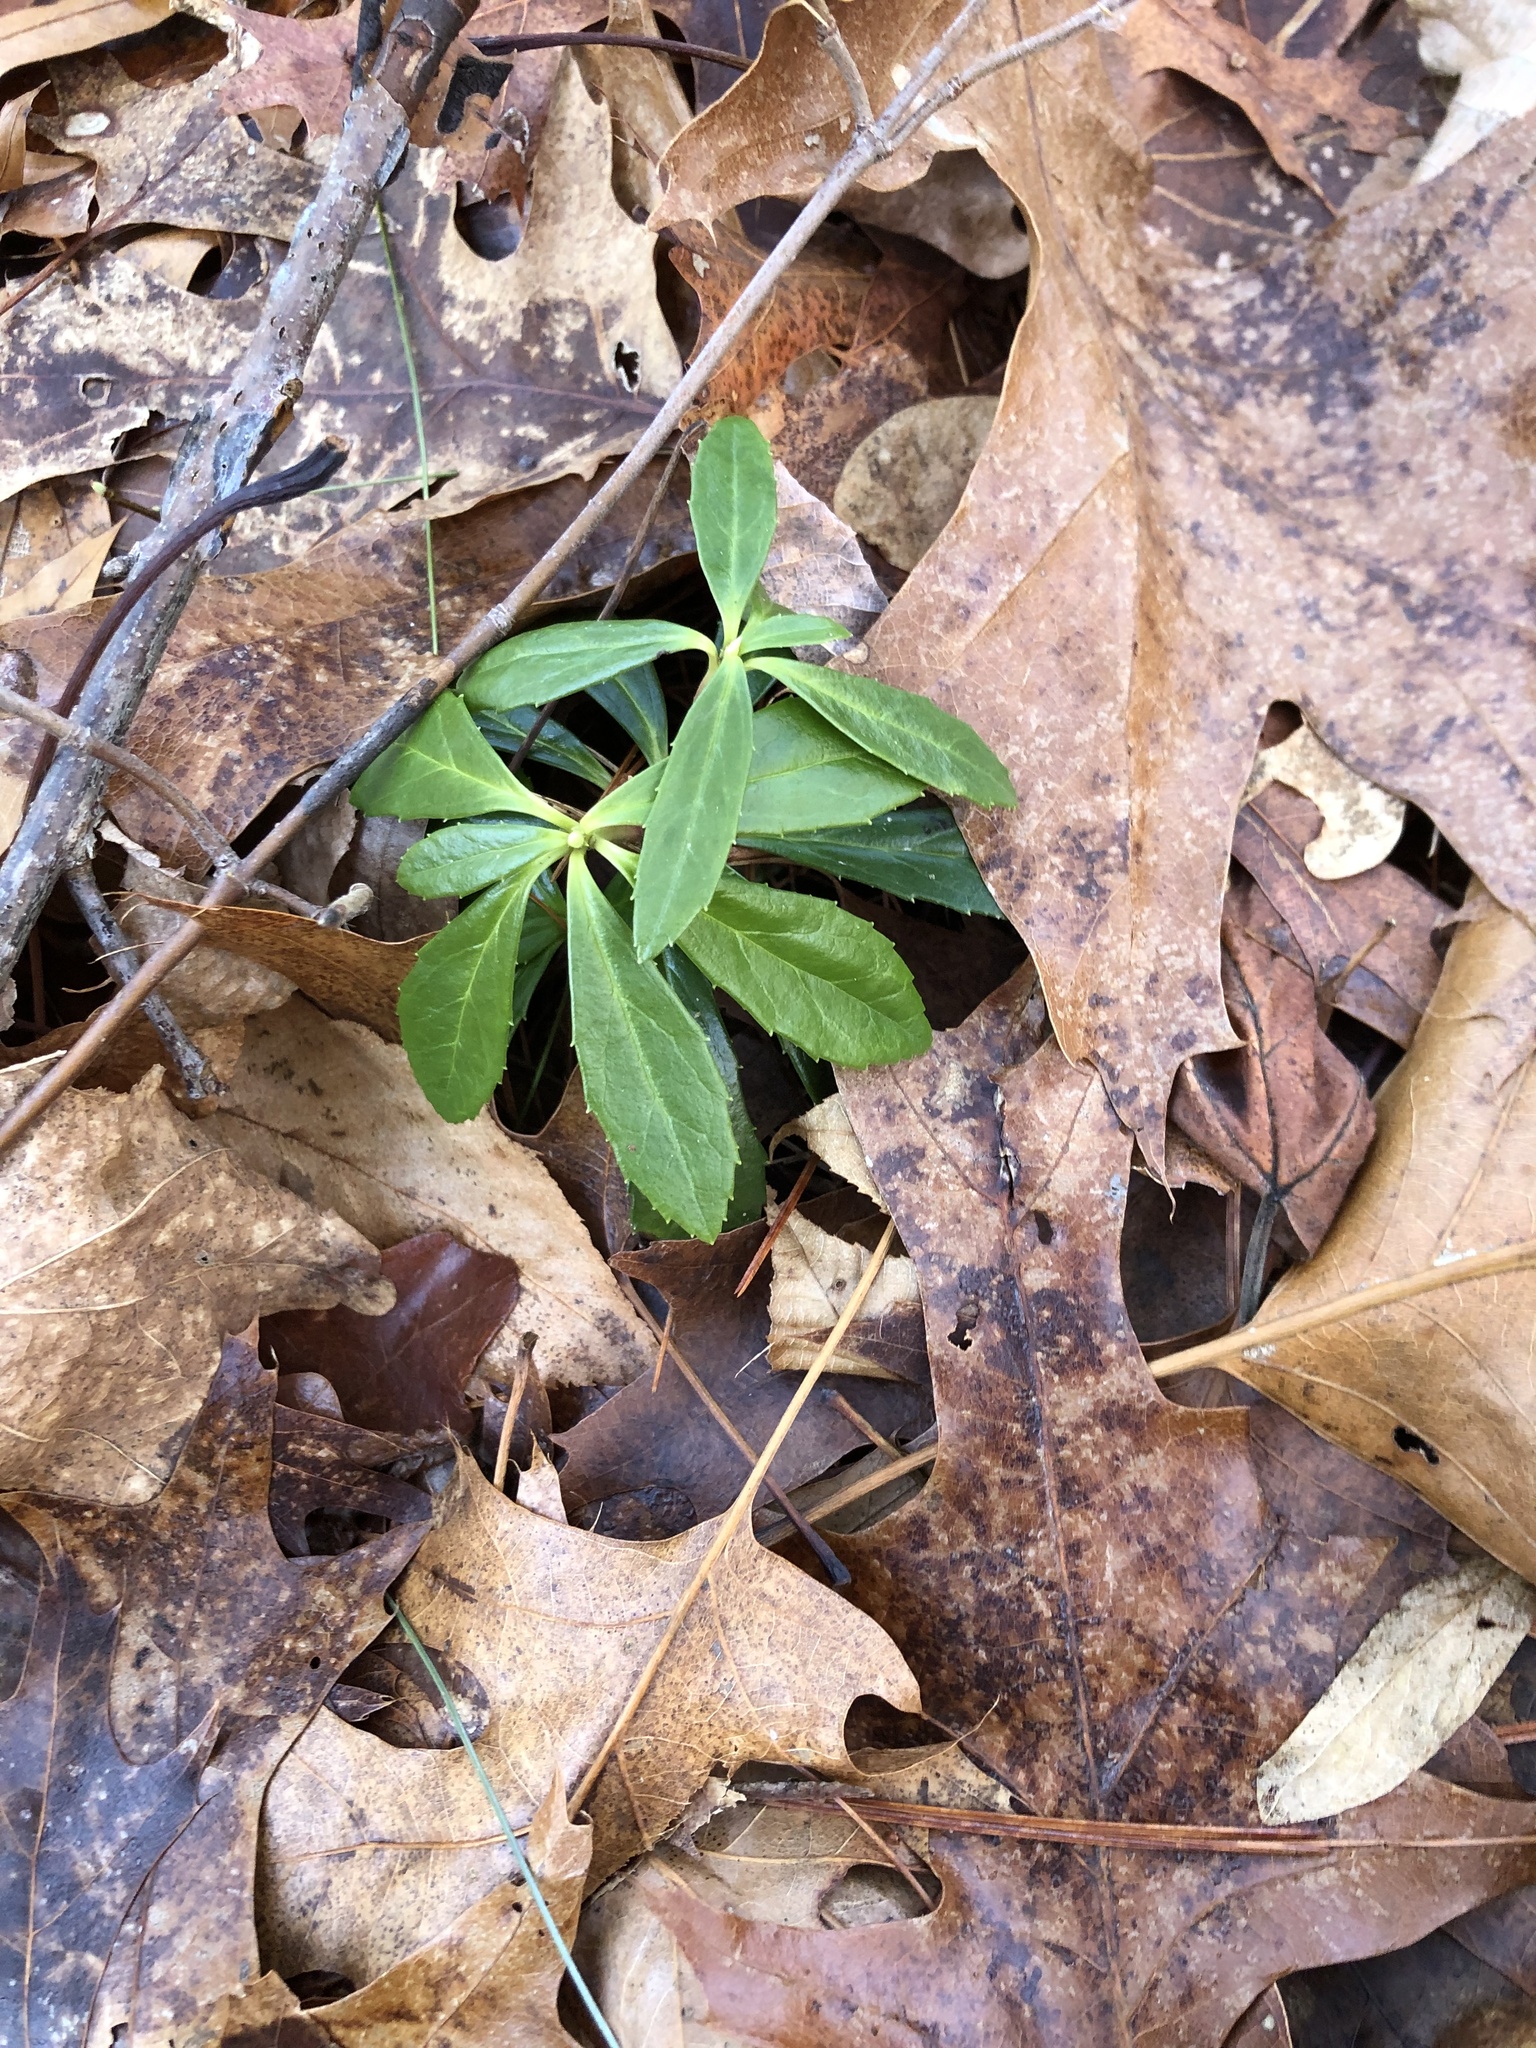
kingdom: Plantae
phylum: Tracheophyta
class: Magnoliopsida
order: Ericales
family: Ericaceae
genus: Chimaphila
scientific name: Chimaphila umbellata
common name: Pipsissewa
